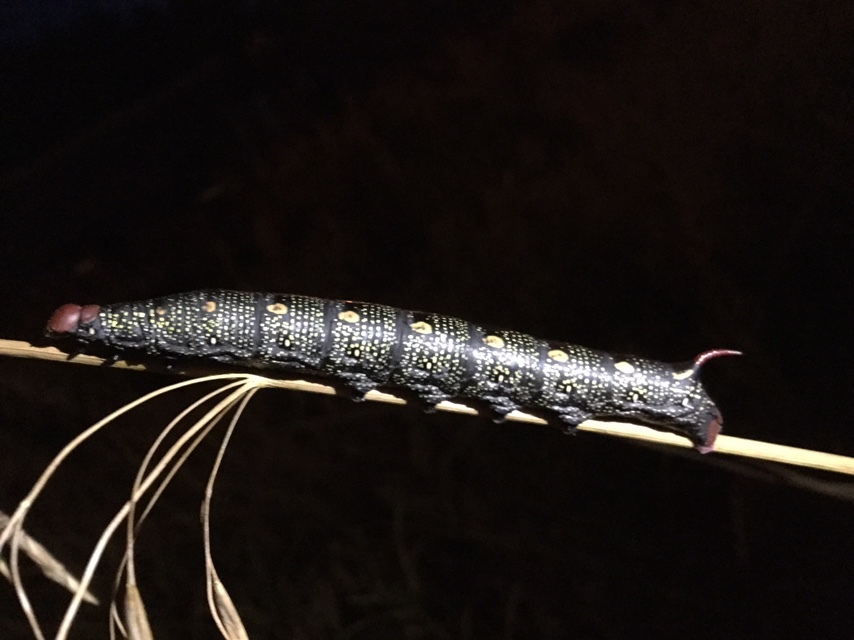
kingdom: Animalia
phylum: Arthropoda
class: Insecta
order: Lepidoptera
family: Sphingidae
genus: Hyles
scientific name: Hyles gallii
